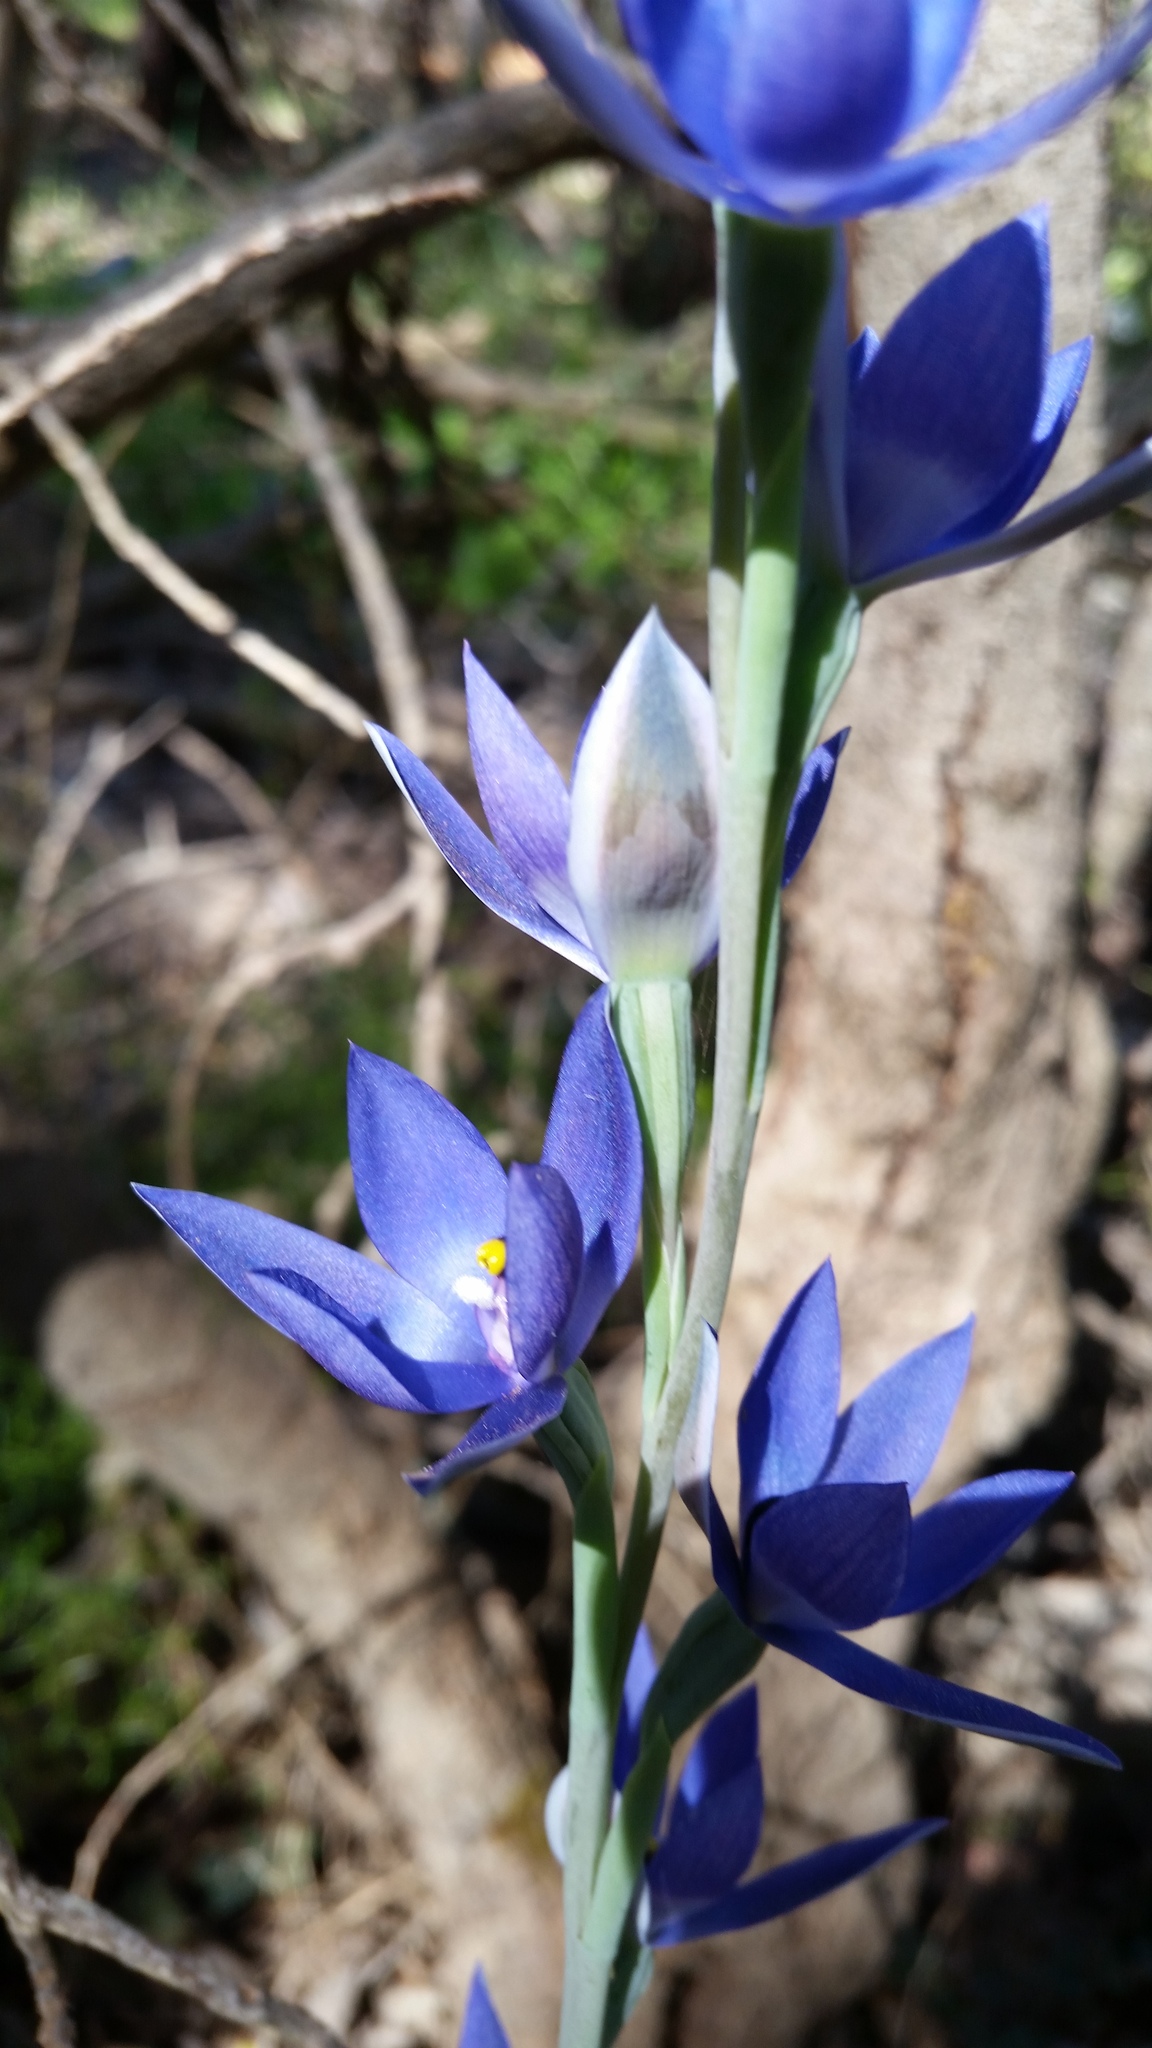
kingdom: Plantae
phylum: Tracheophyta
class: Liliopsida
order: Asparagales
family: Orchidaceae
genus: Thelymitra
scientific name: Thelymitra macrophylla
